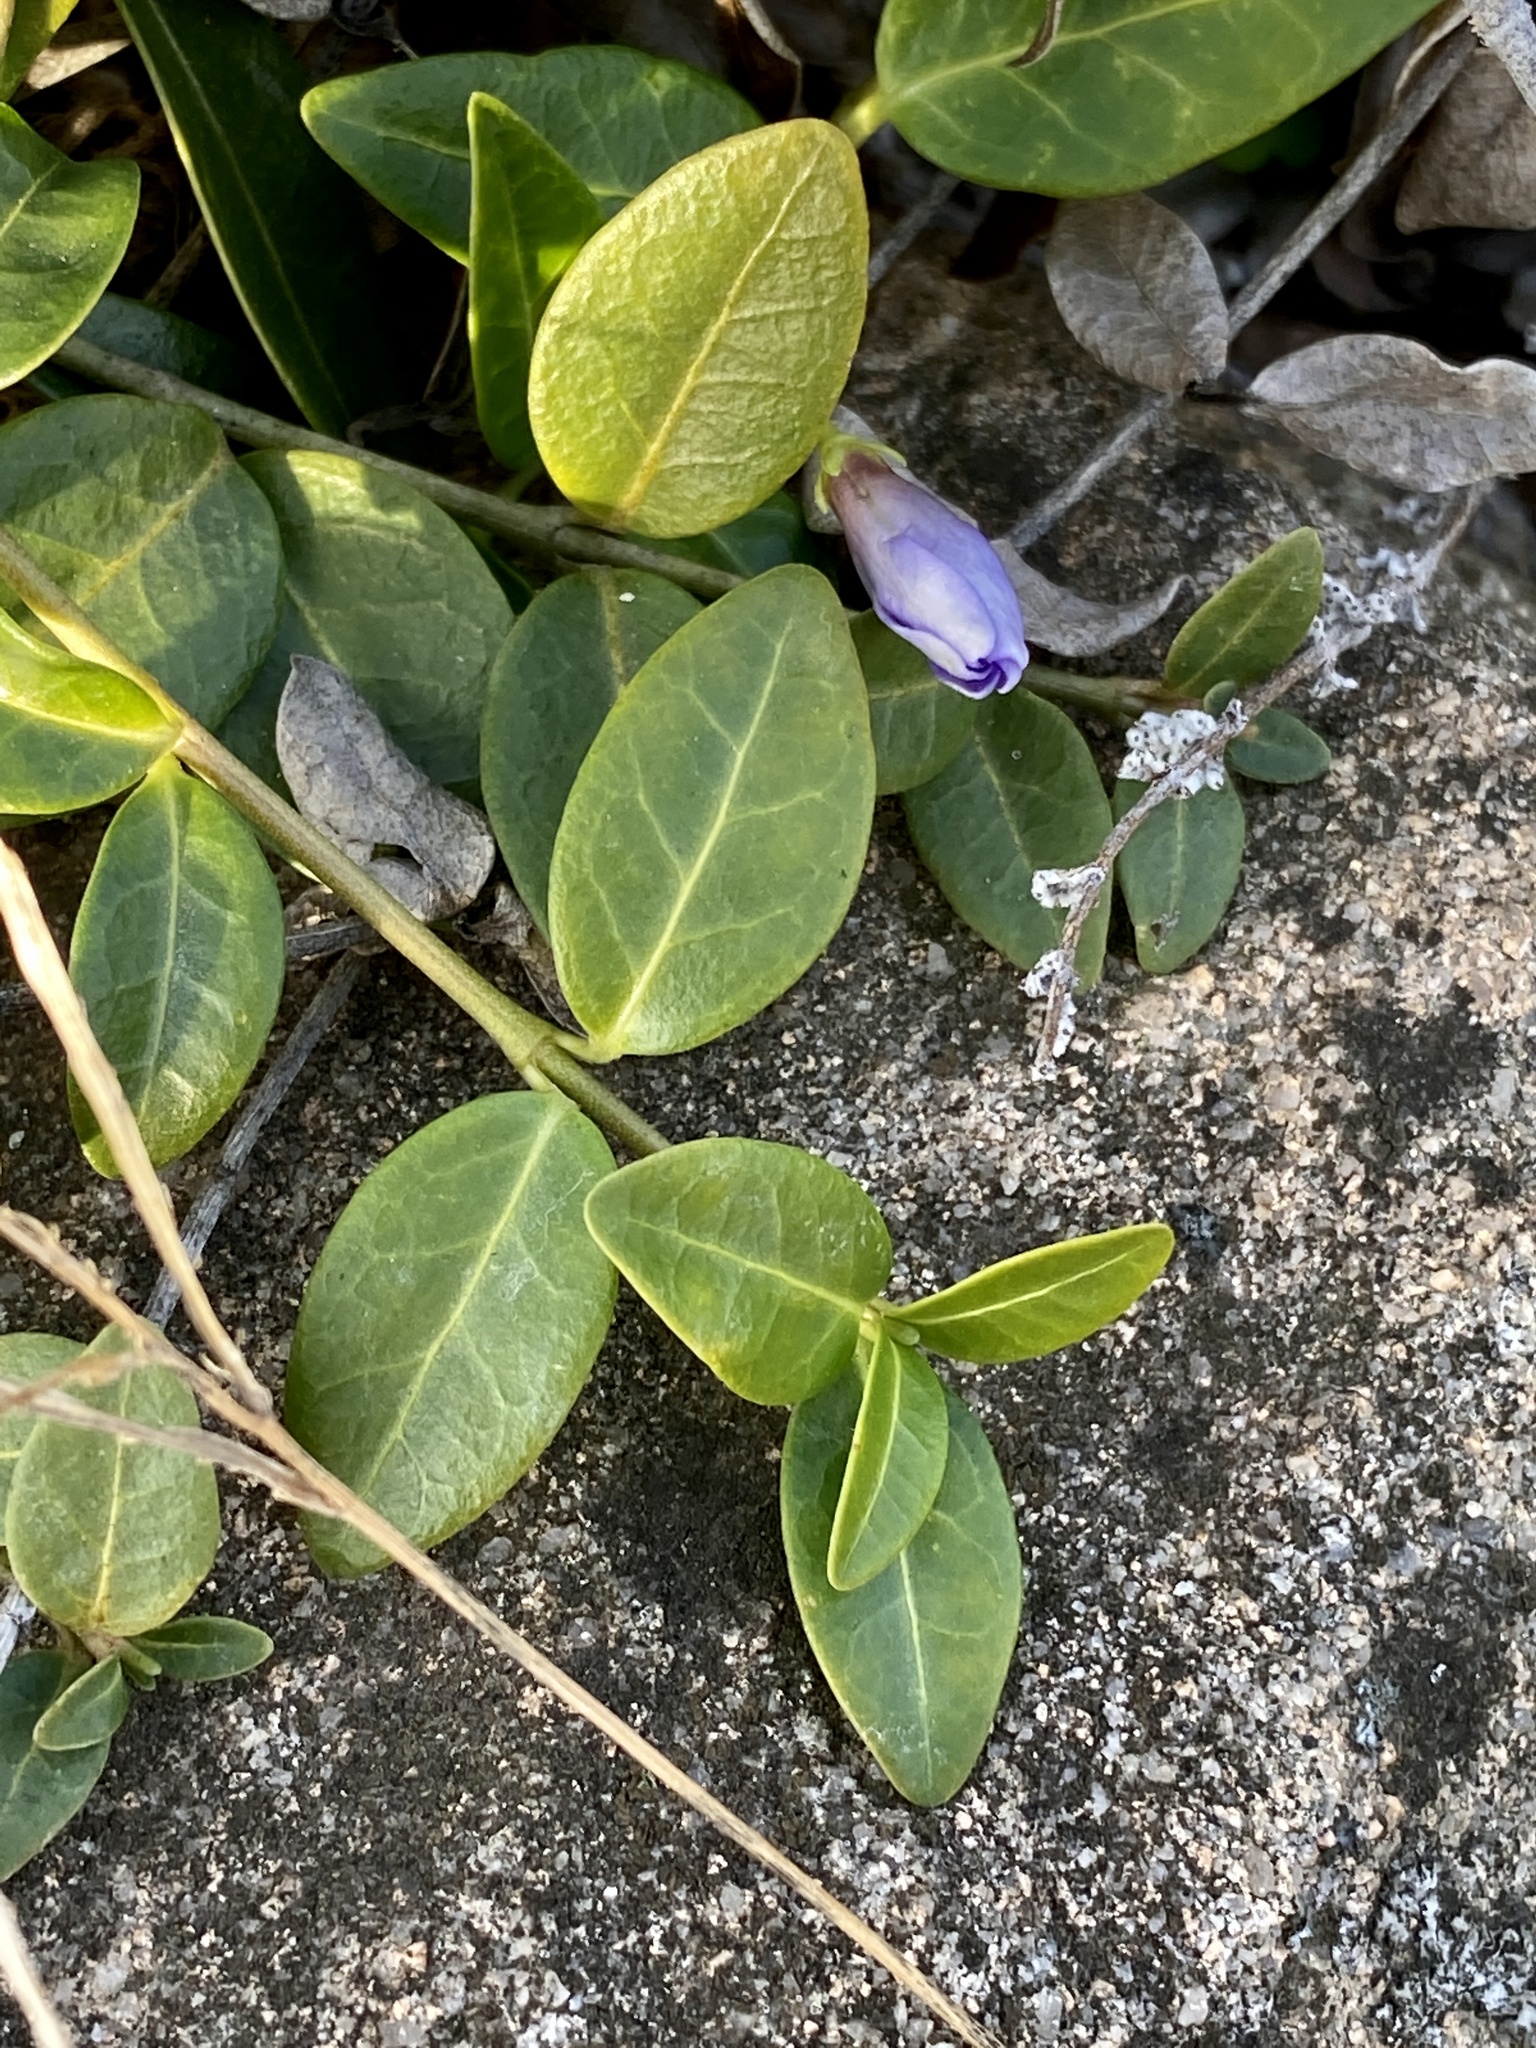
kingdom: Plantae
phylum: Tracheophyta
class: Magnoliopsida
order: Gentianales
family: Apocynaceae
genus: Vinca
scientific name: Vinca minor
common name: Lesser periwinkle
